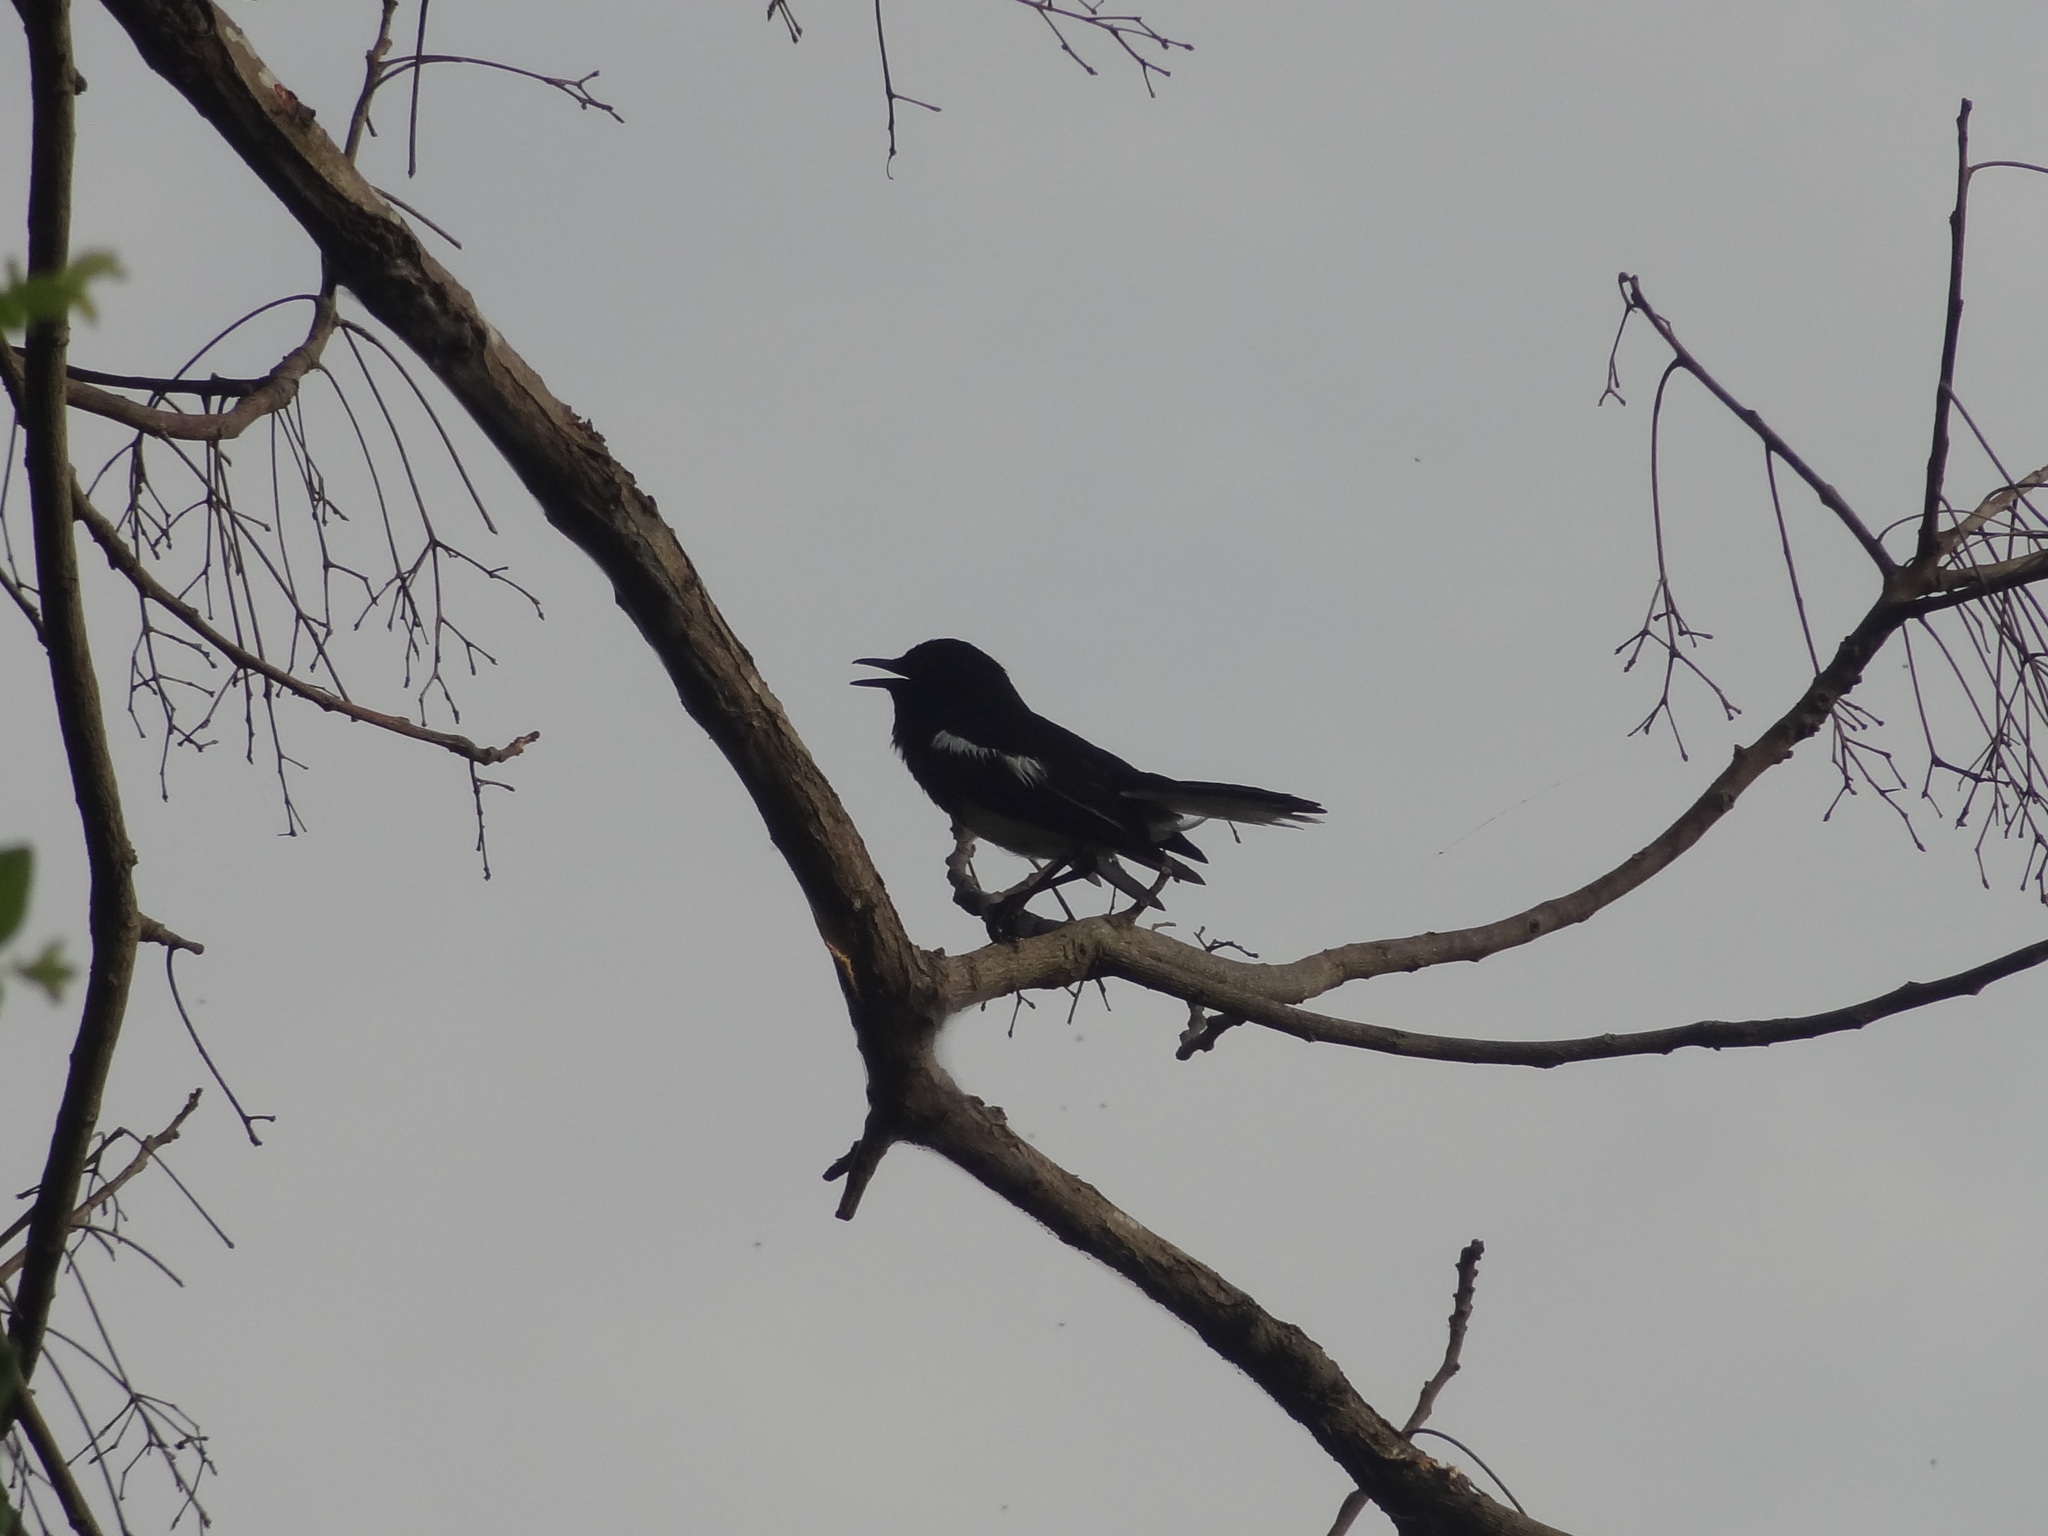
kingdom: Animalia
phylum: Chordata
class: Aves
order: Passeriformes
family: Muscicapidae
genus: Copsychus
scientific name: Copsychus saularis
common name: Oriental magpie-robin
